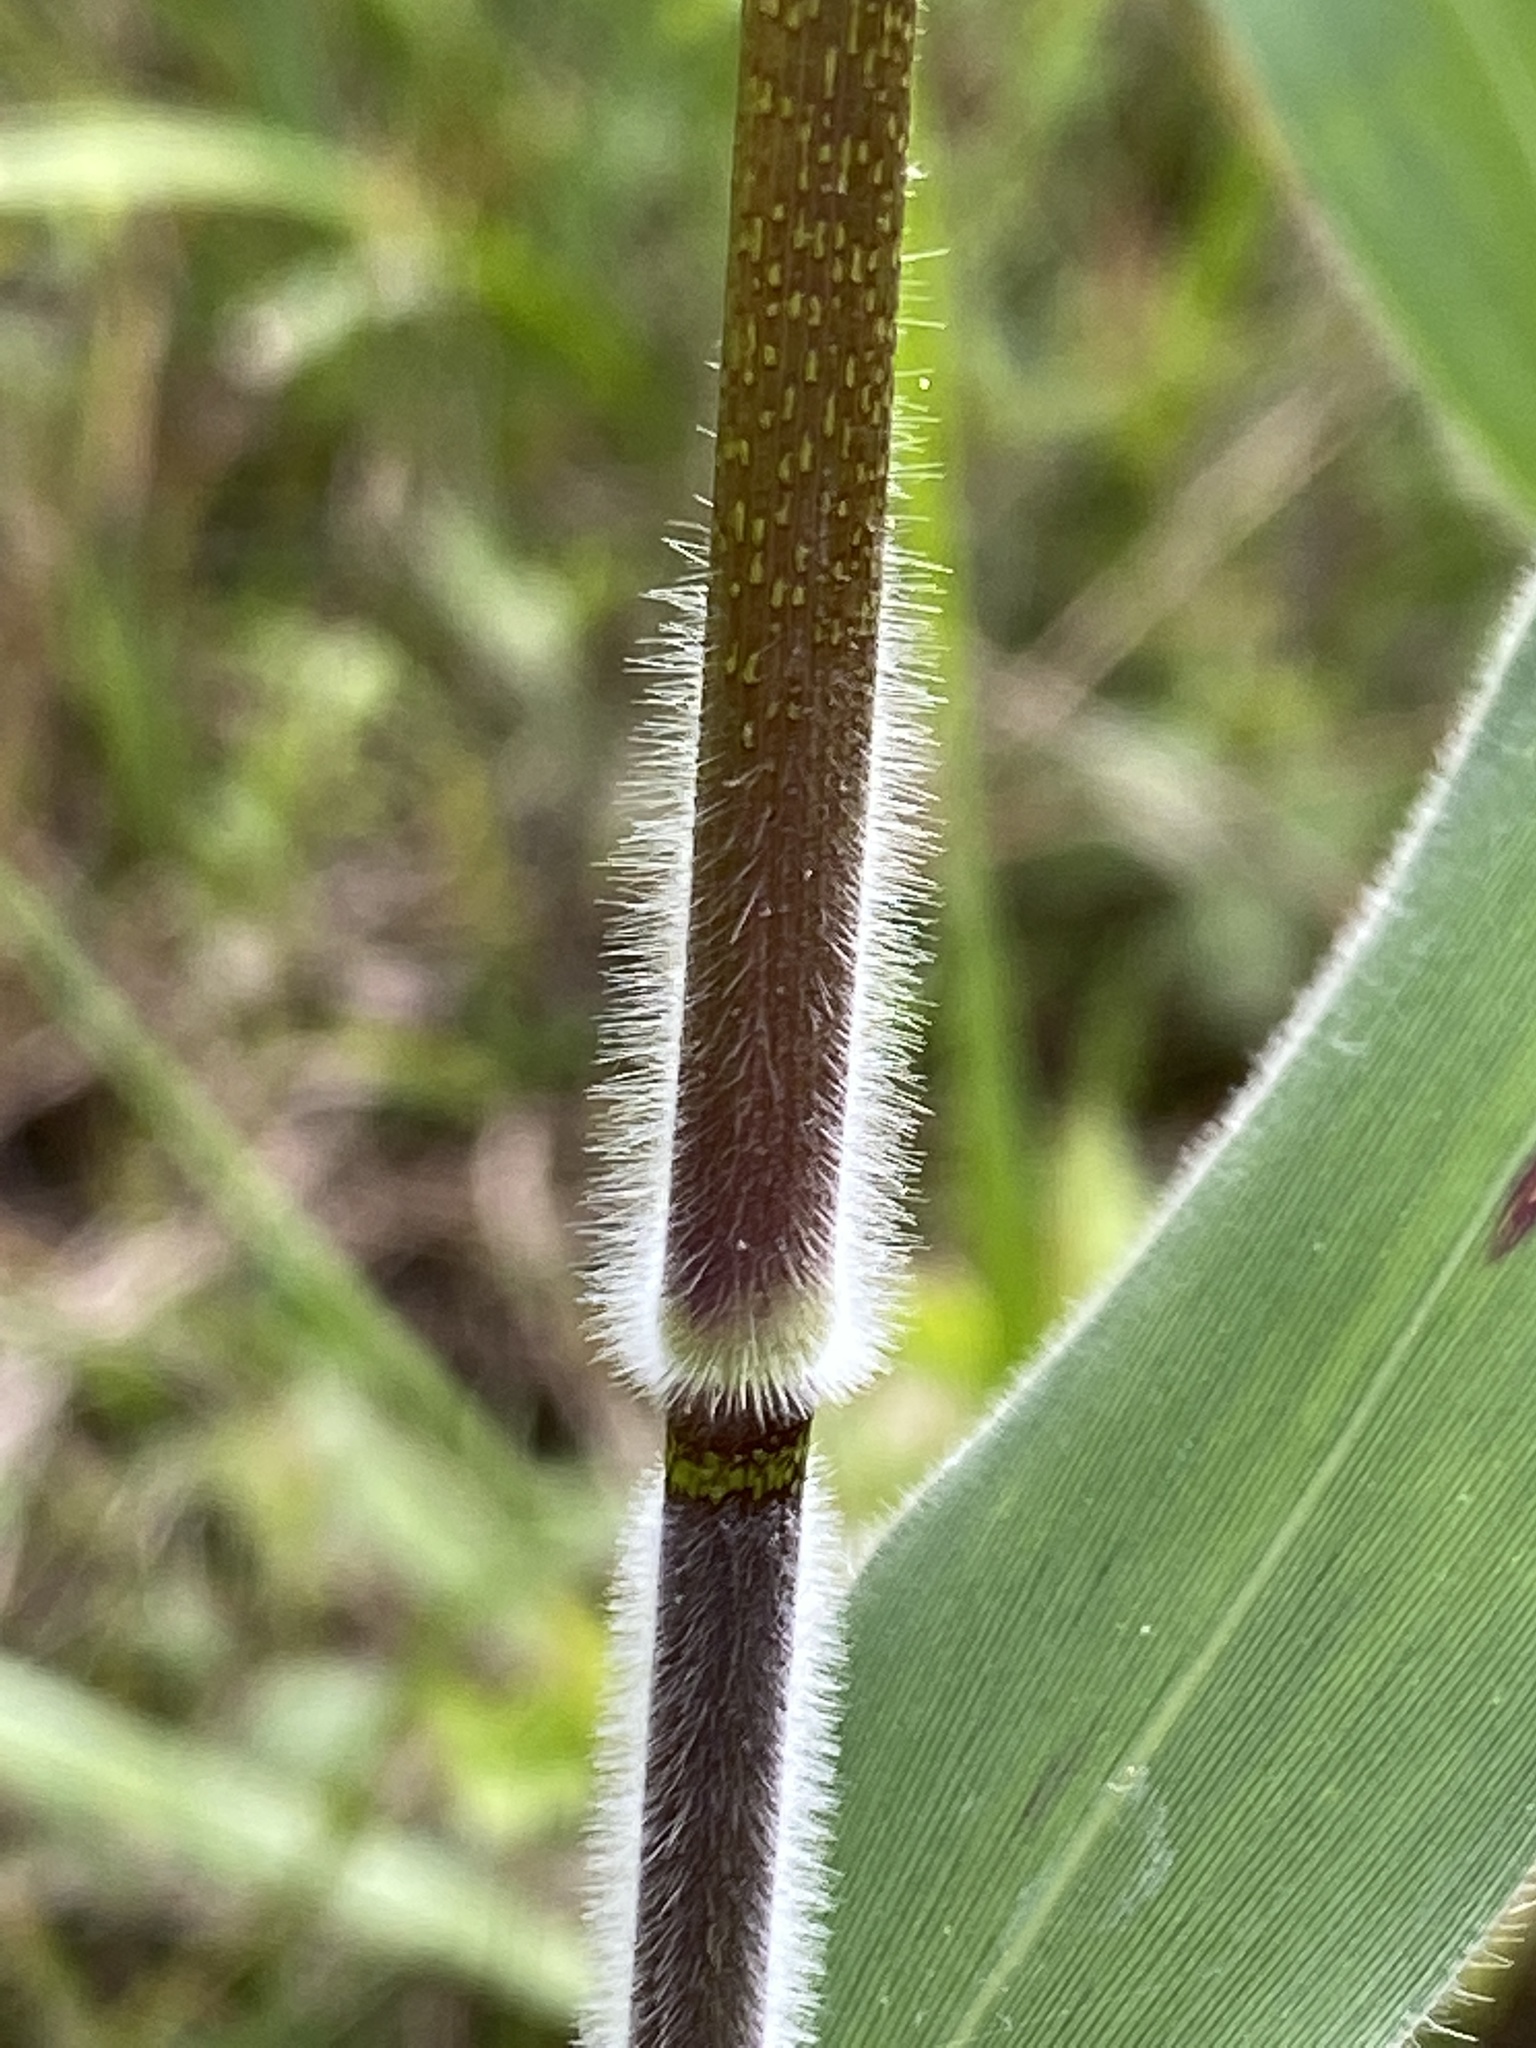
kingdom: Plantae
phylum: Tracheophyta
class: Liliopsida
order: Poales
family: Poaceae
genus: Dichanthelium
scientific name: Dichanthelium scoparium
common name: Velvety panic grass
